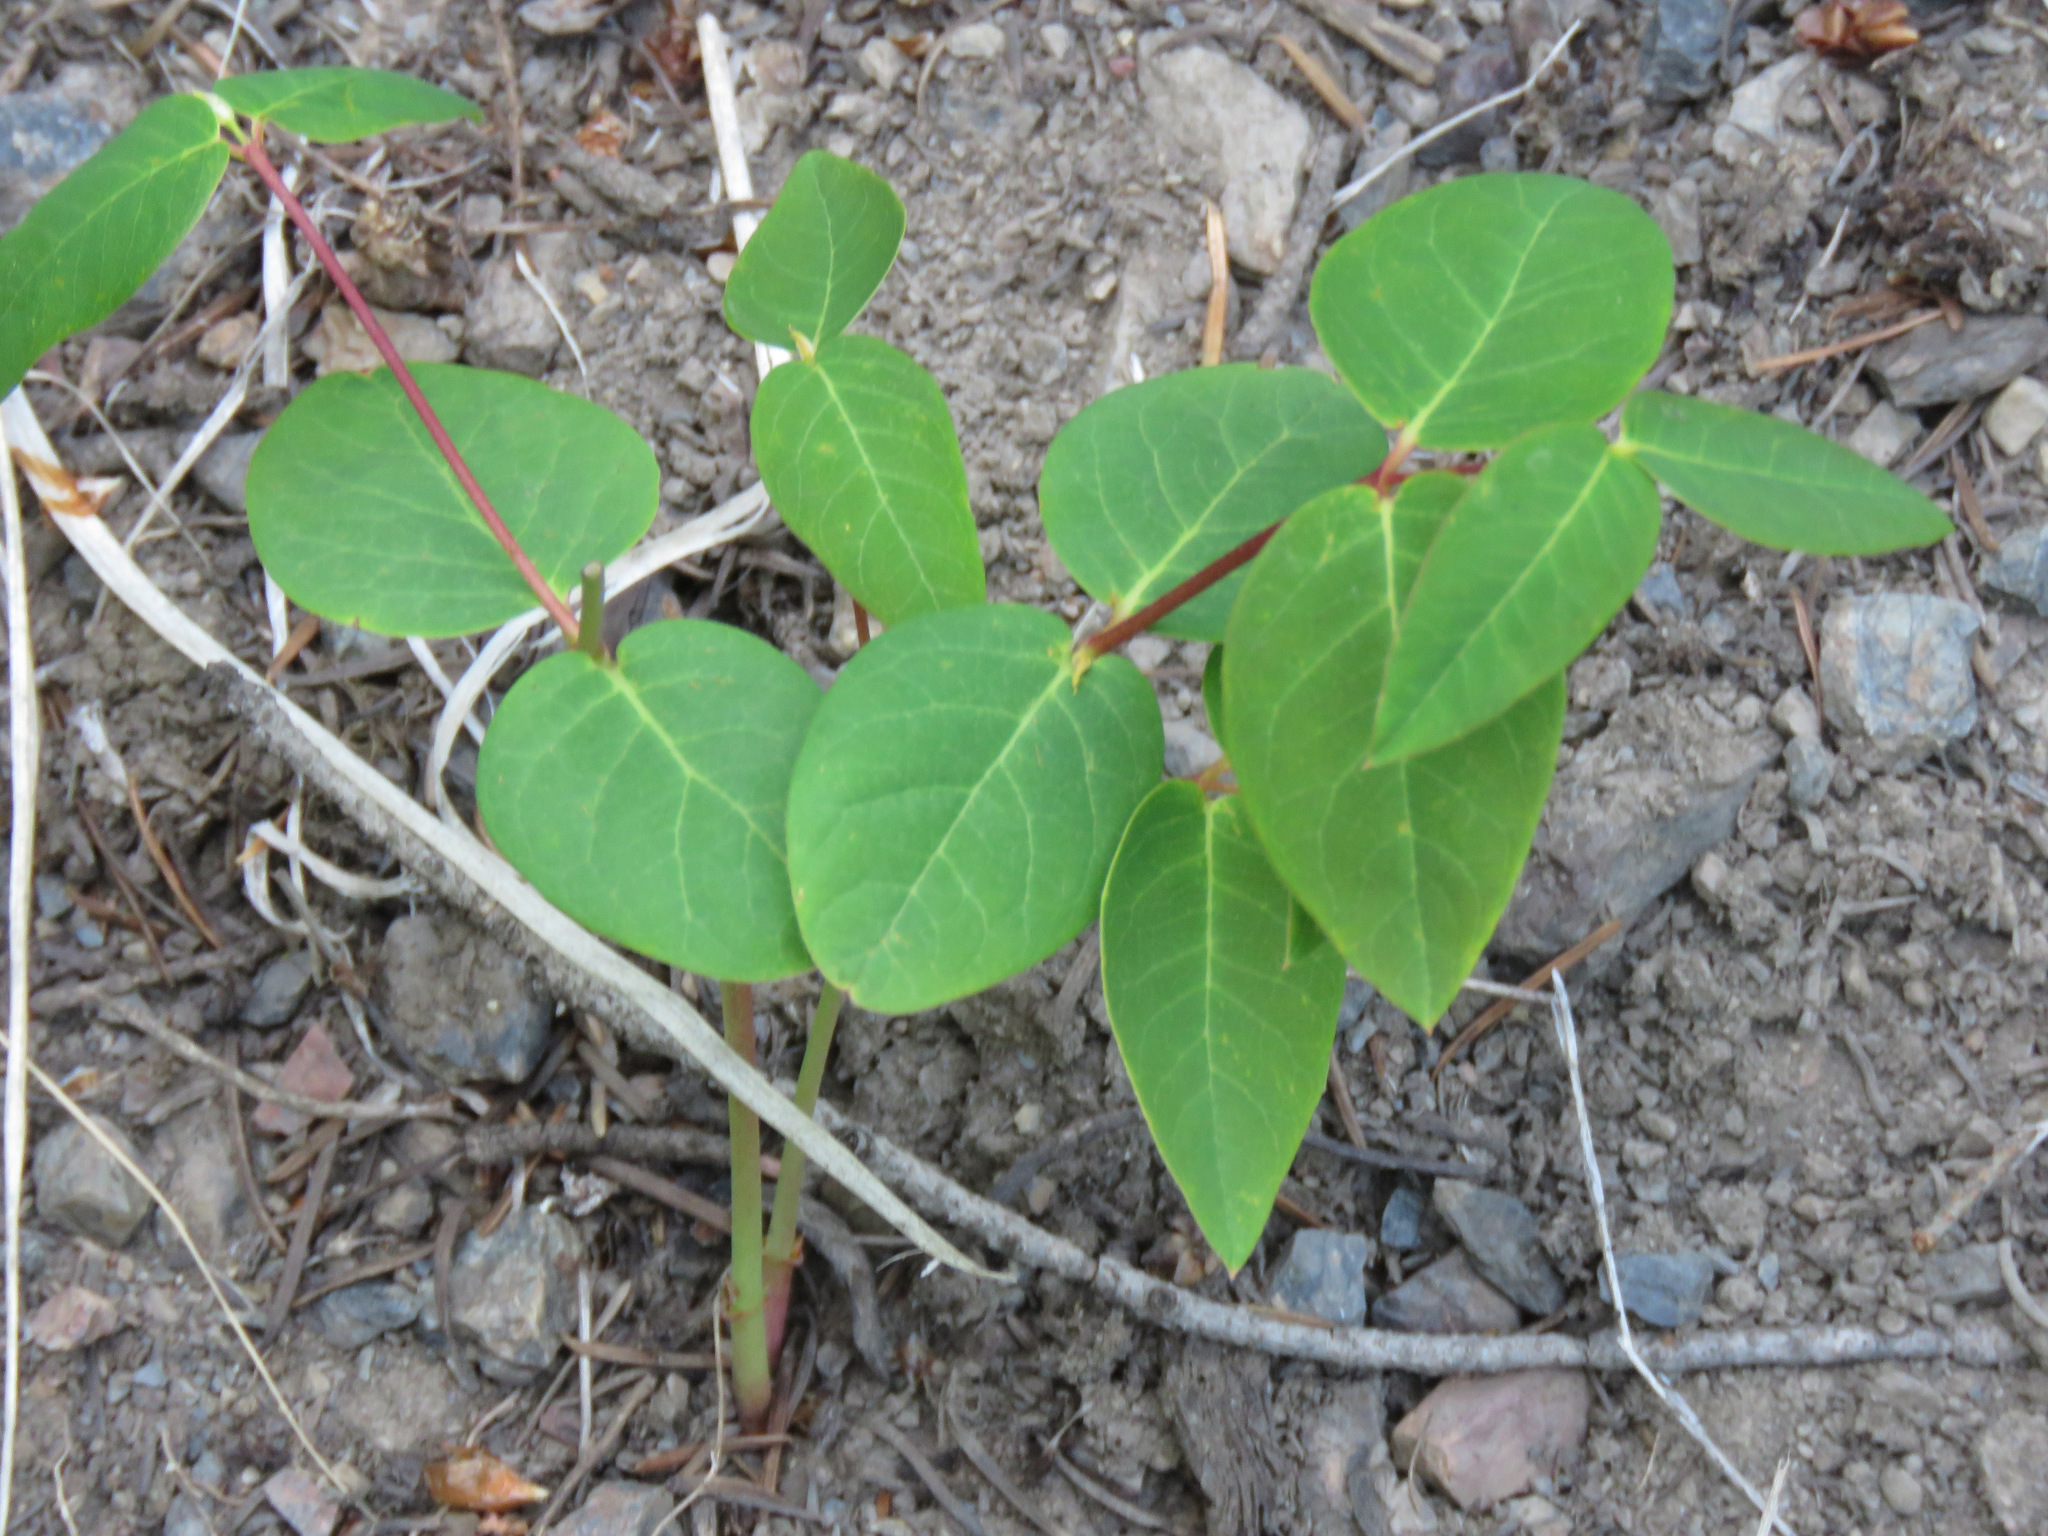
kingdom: Plantae
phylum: Tracheophyta
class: Magnoliopsida
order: Gentianales
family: Apocynaceae
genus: Apocynum
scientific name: Apocynum androsaemifolium
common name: Spreading dogbane
